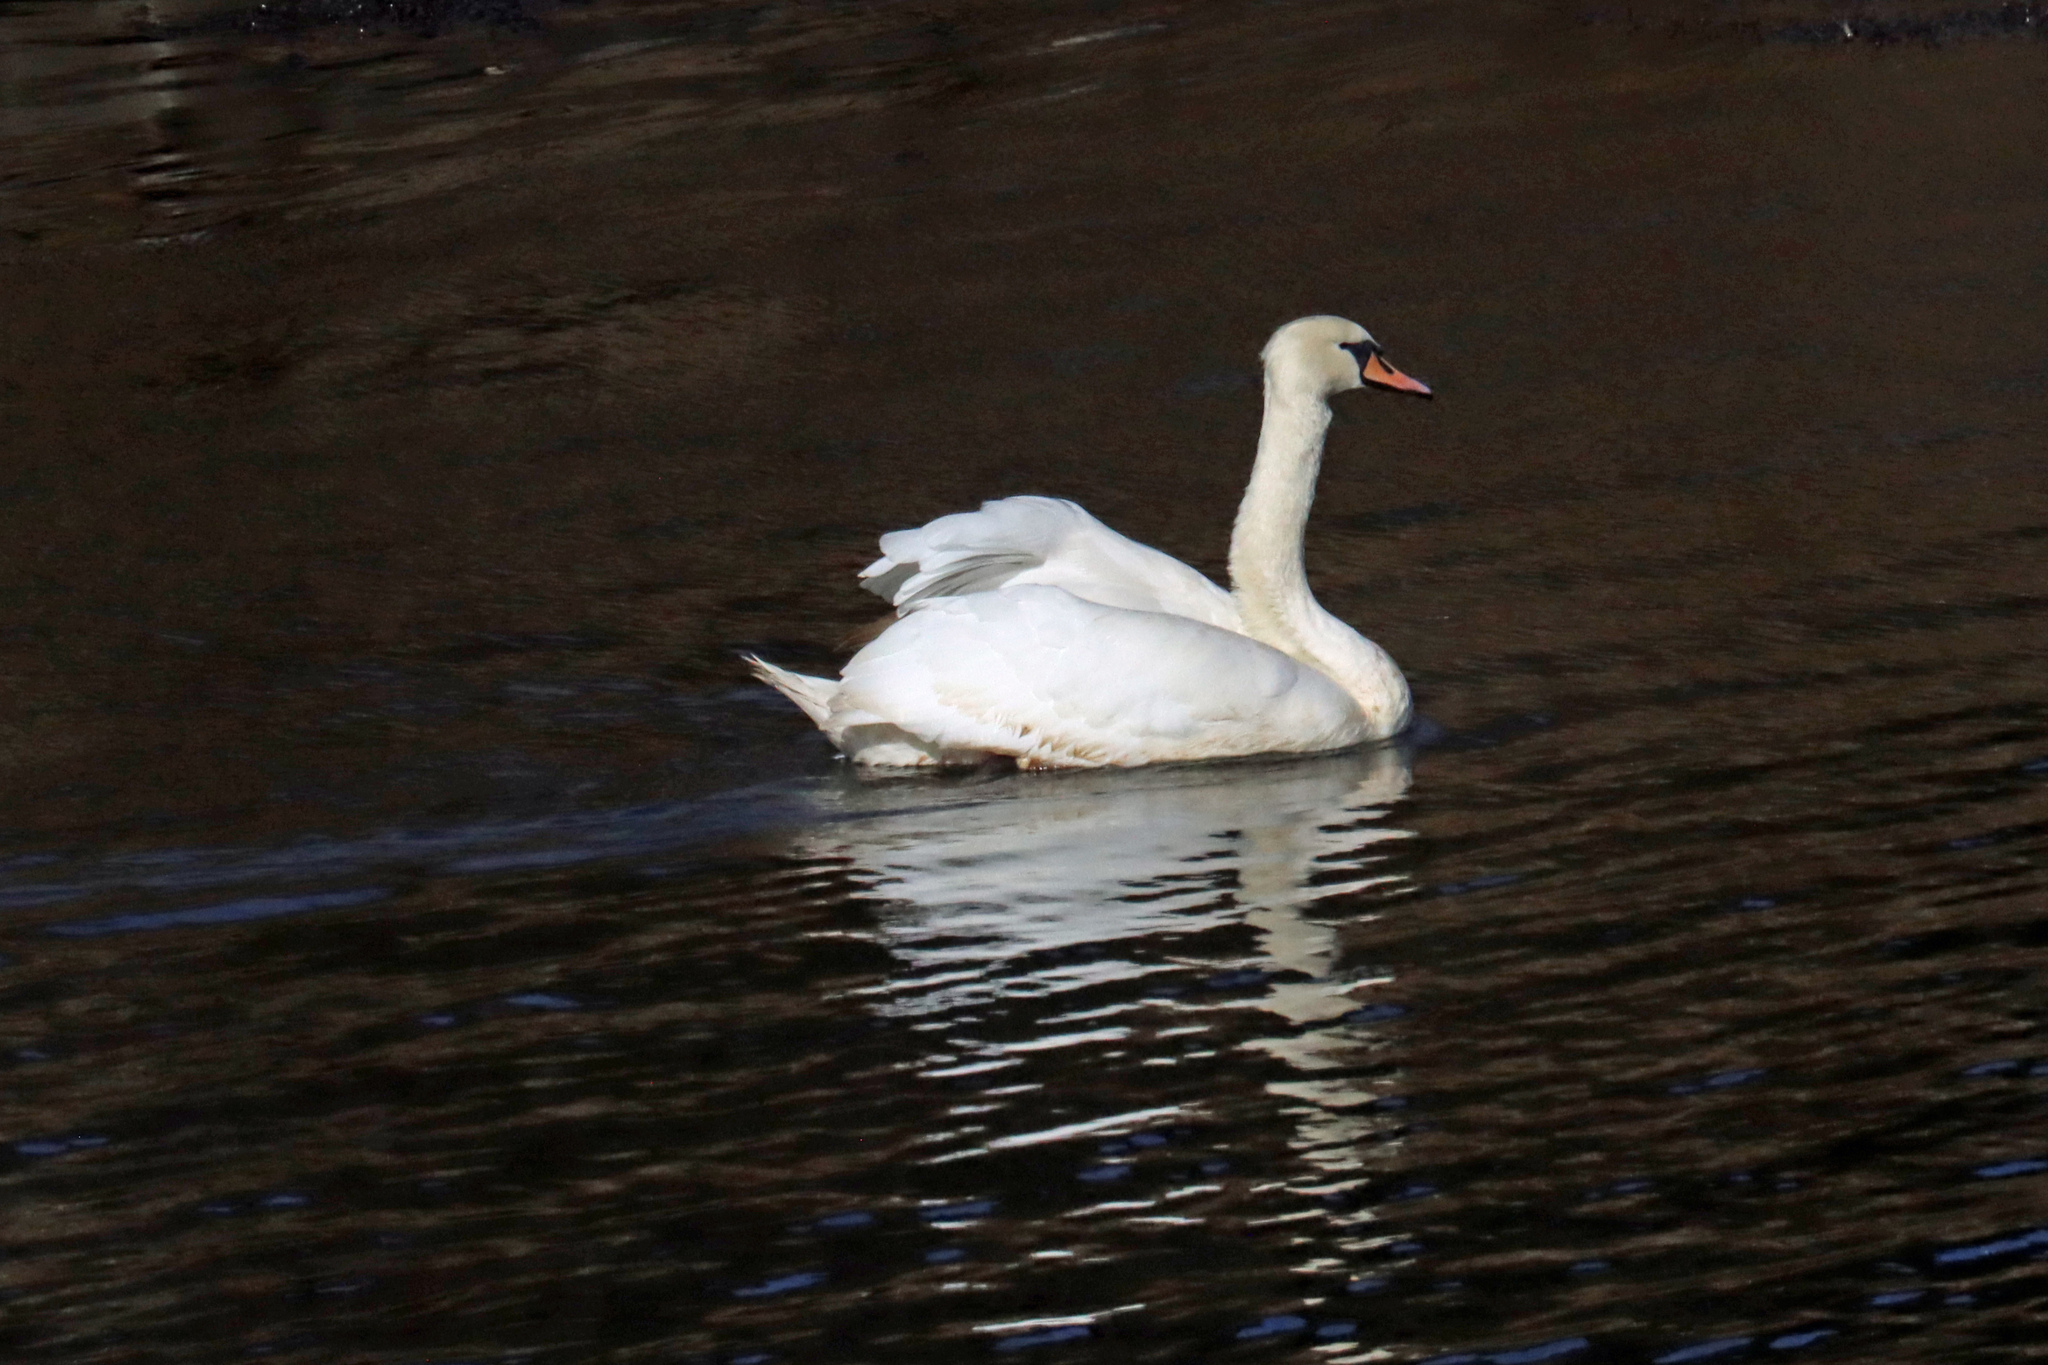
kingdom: Animalia
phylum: Chordata
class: Aves
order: Anseriformes
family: Anatidae
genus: Cygnus
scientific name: Cygnus olor
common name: Mute swan
